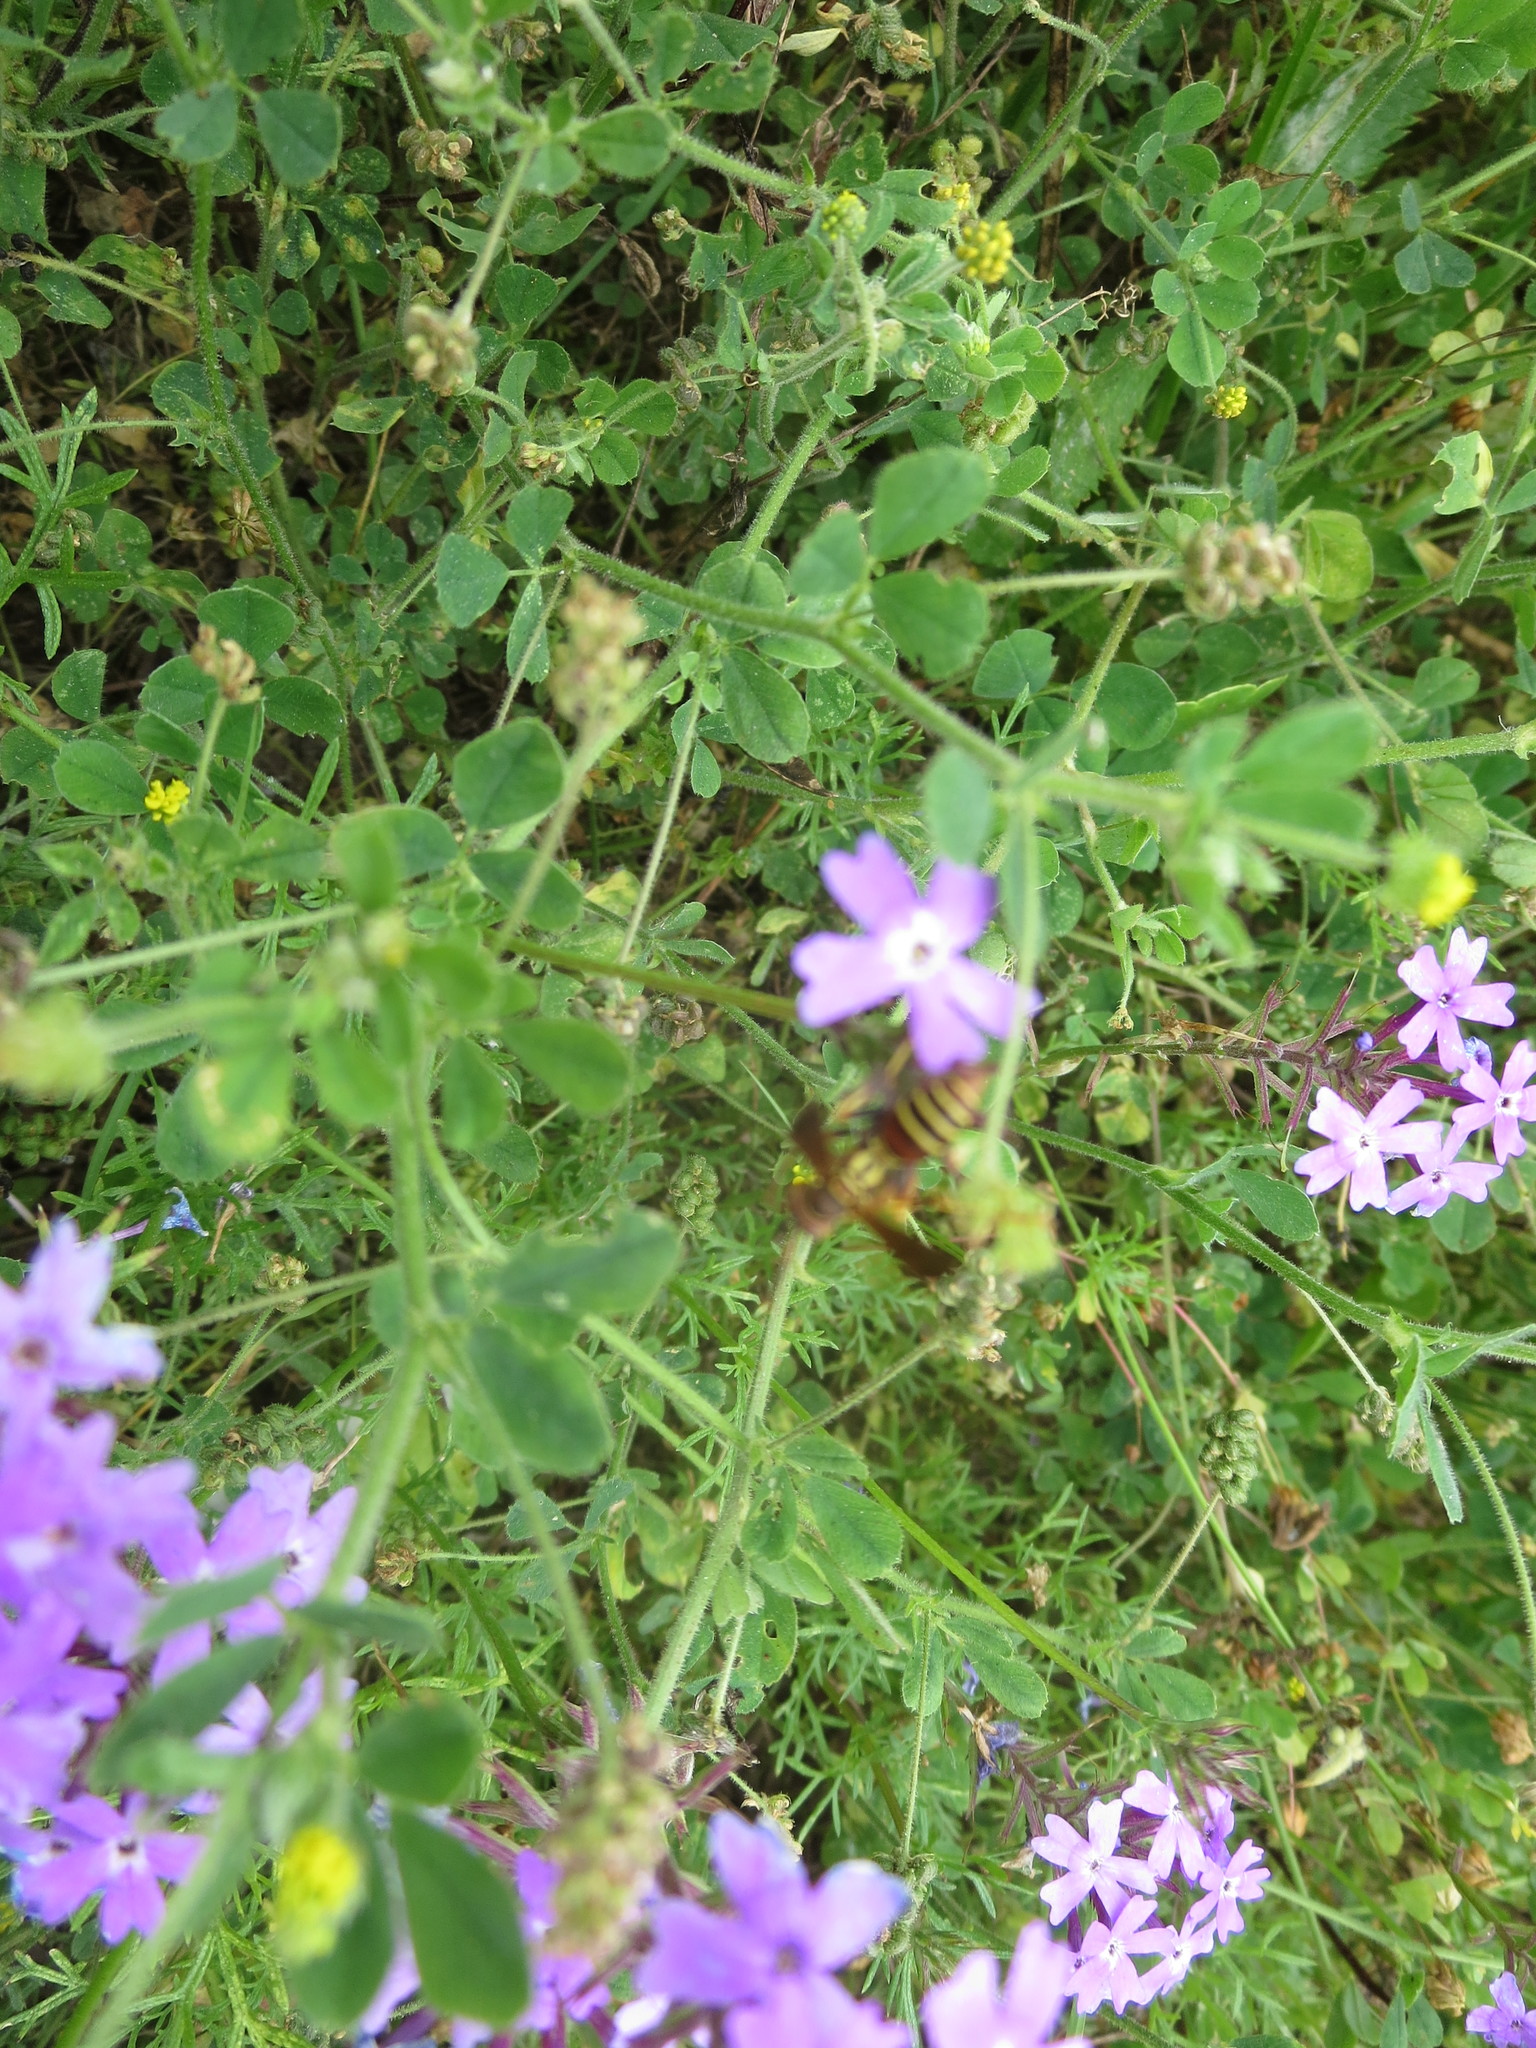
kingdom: Animalia
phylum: Arthropoda
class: Insecta
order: Hymenoptera
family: Vespidae
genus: Fuscopolistes
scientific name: Fuscopolistes
